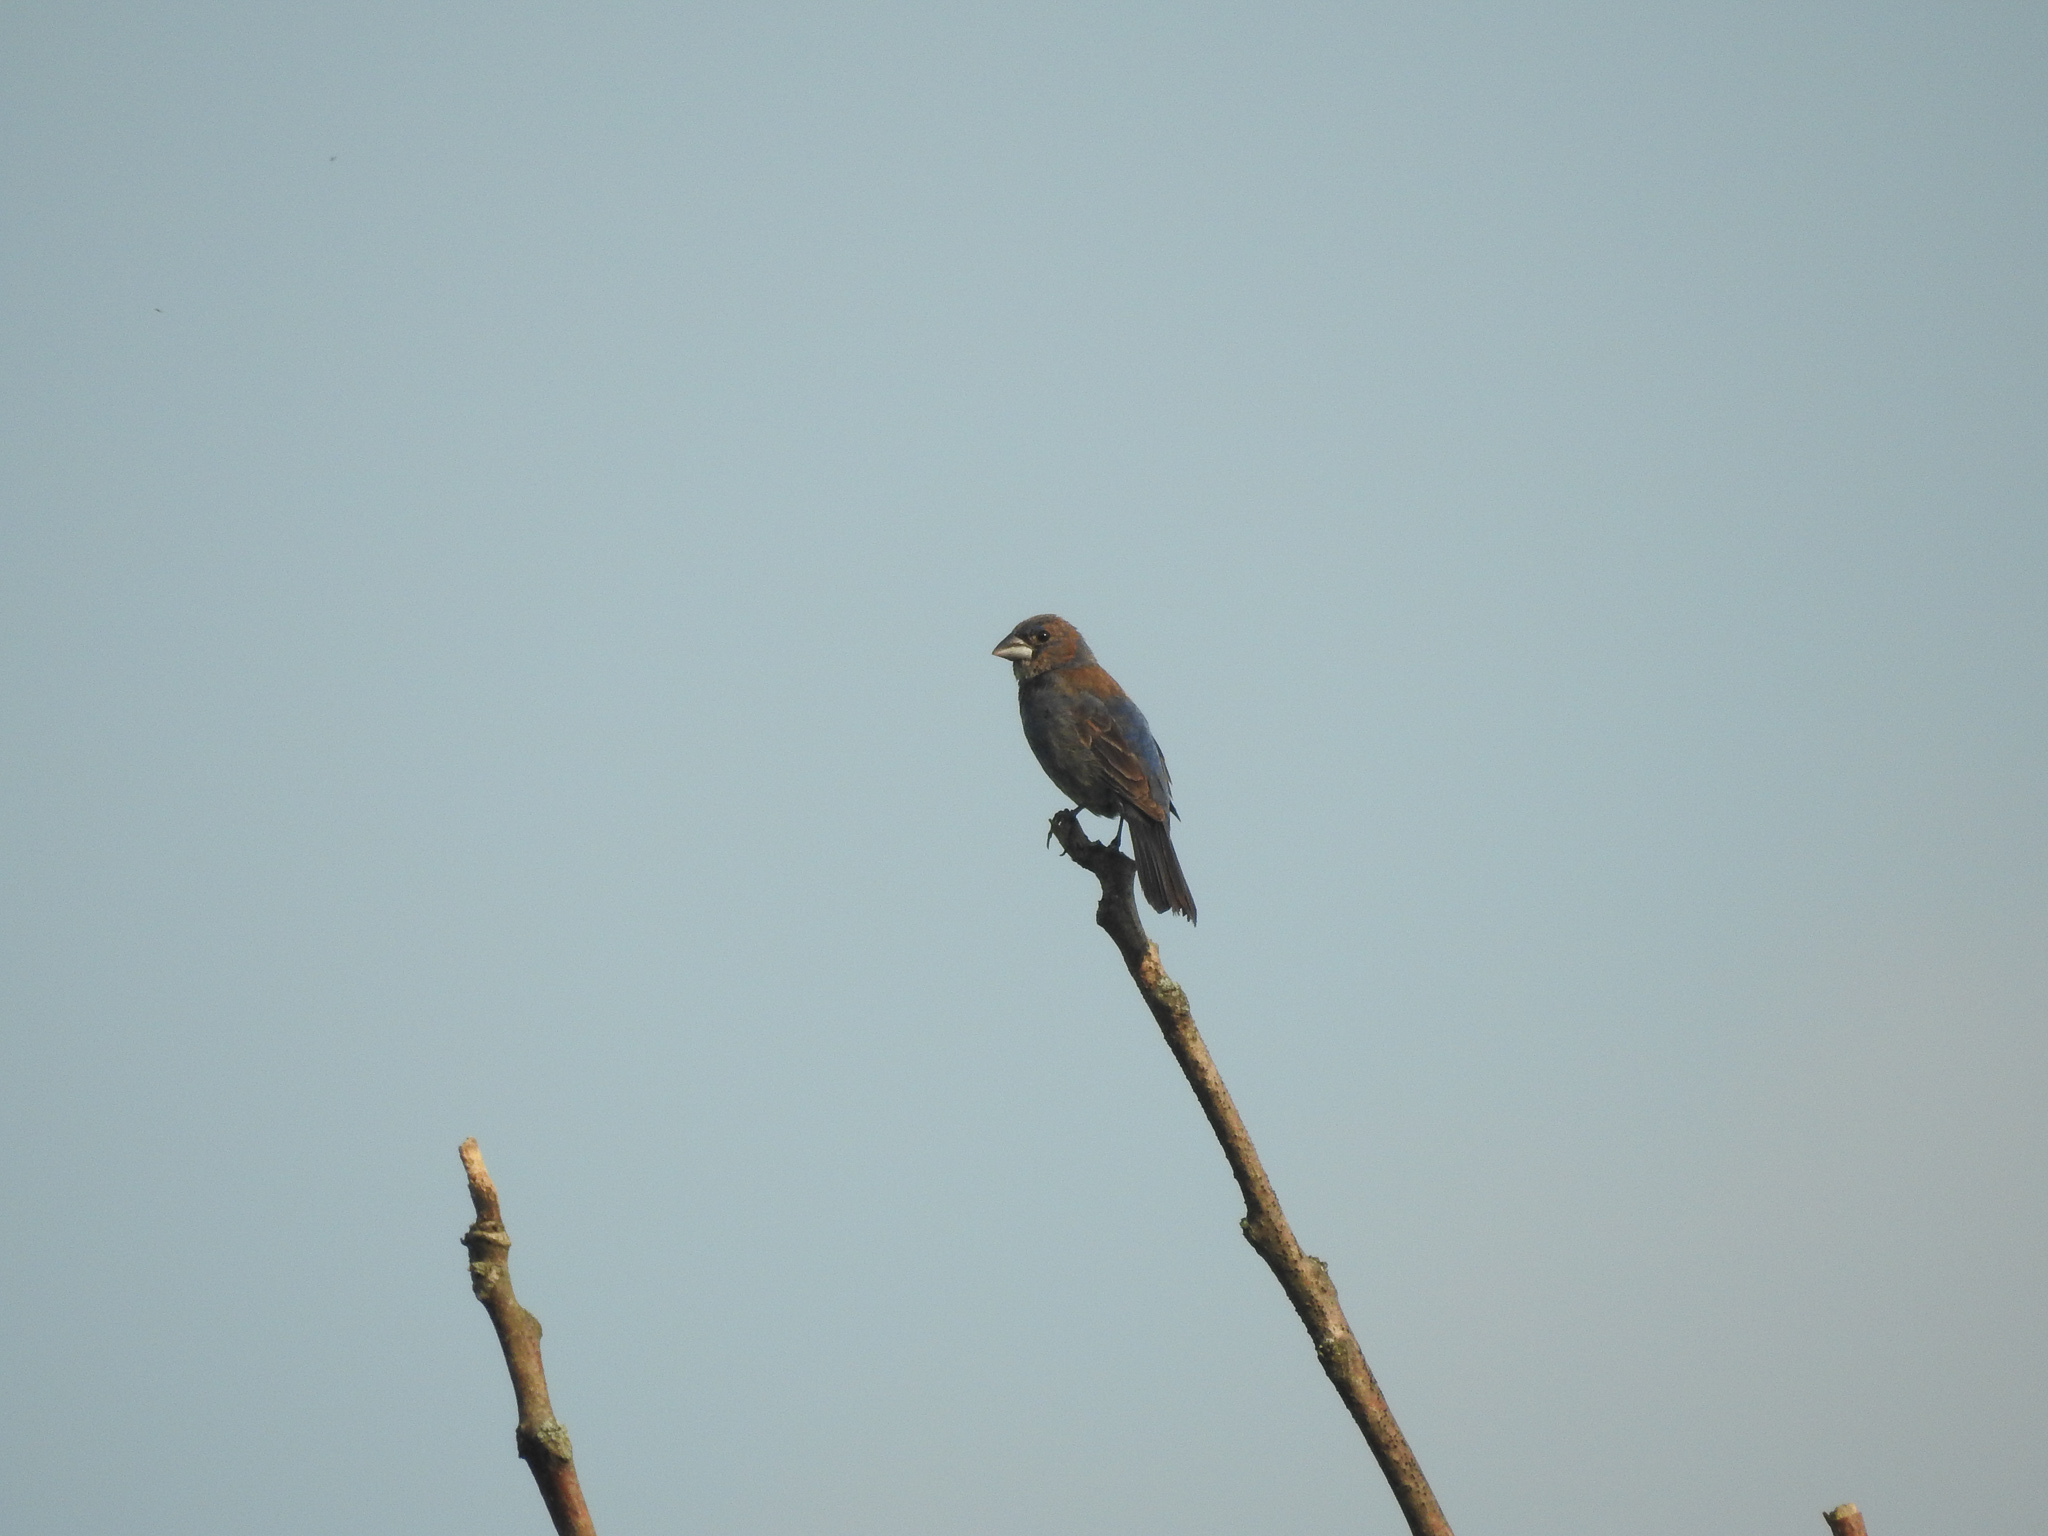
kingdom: Animalia
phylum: Chordata
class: Aves
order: Passeriformes
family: Cardinalidae
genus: Passerina
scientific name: Passerina caerulea
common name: Blue grosbeak
